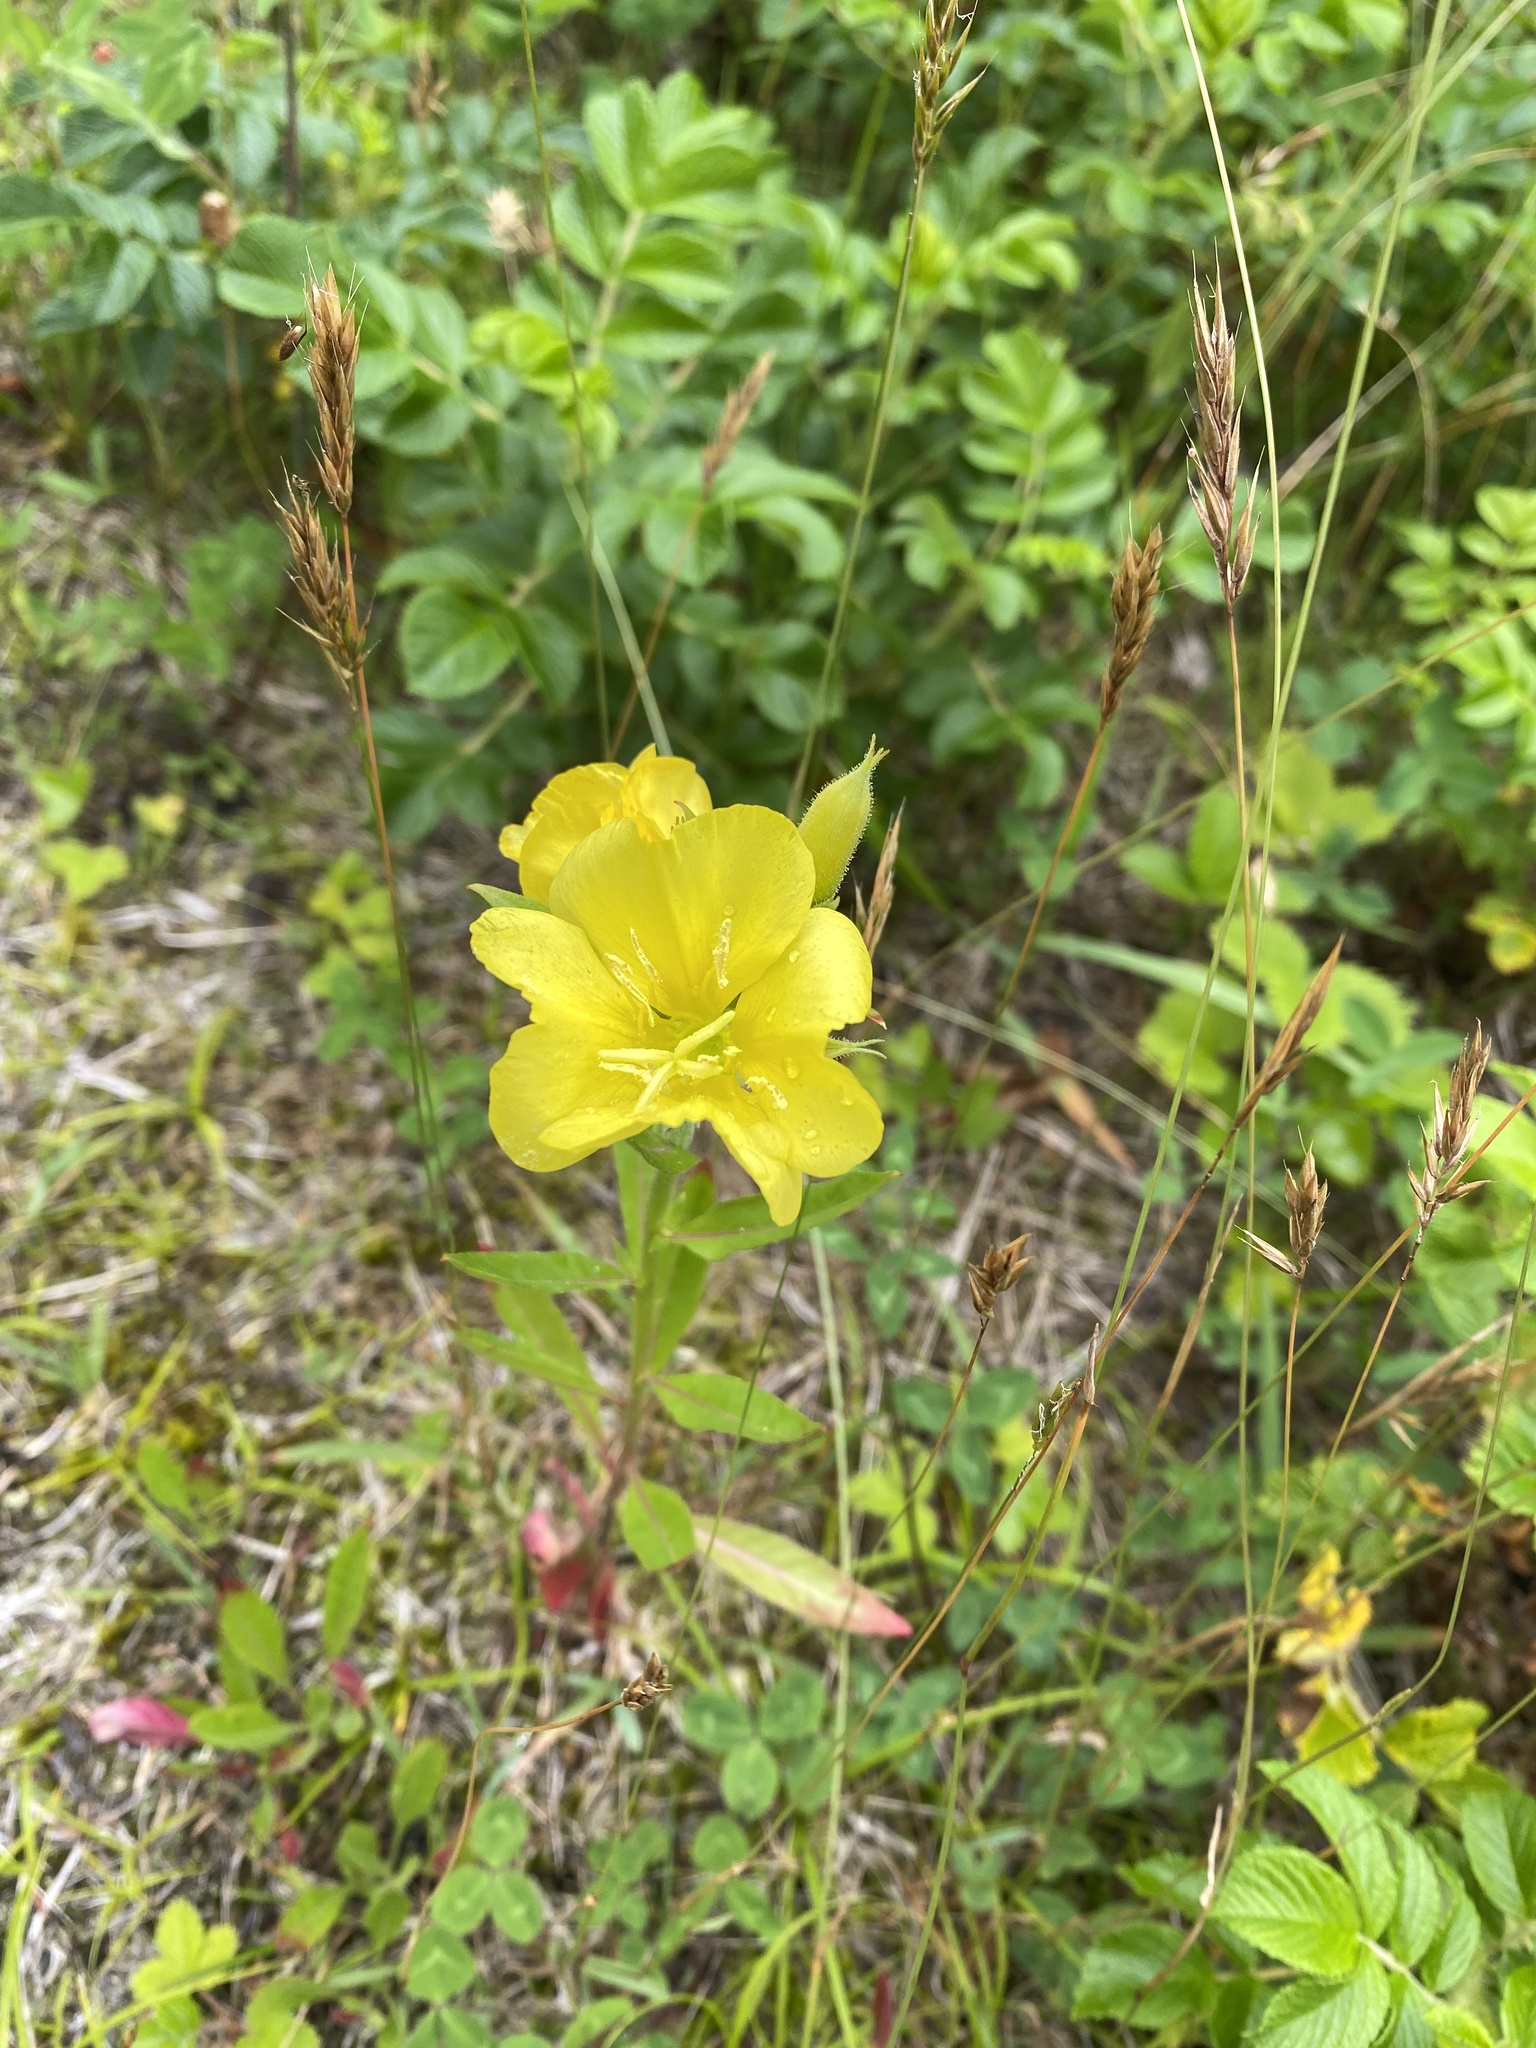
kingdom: Plantae
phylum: Tracheophyta
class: Magnoliopsida
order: Myrtales
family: Onagraceae
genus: Oenothera
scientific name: Oenothera biennis
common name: Common evening-primrose
